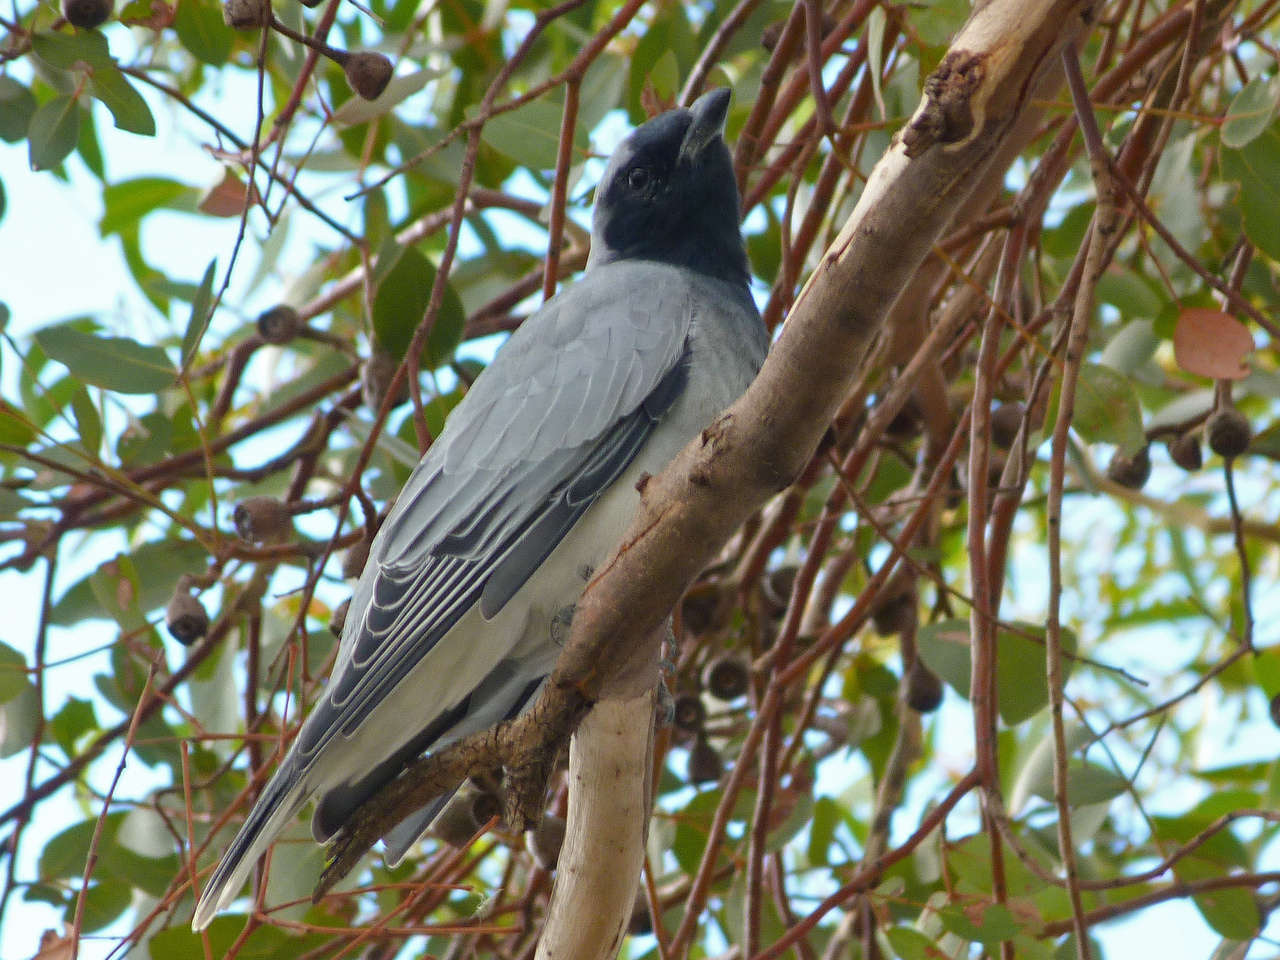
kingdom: Animalia
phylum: Chordata
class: Aves
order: Passeriformes
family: Campephagidae
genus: Coracina
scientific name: Coracina novaehollandiae
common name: Black-faced cuckooshrike
